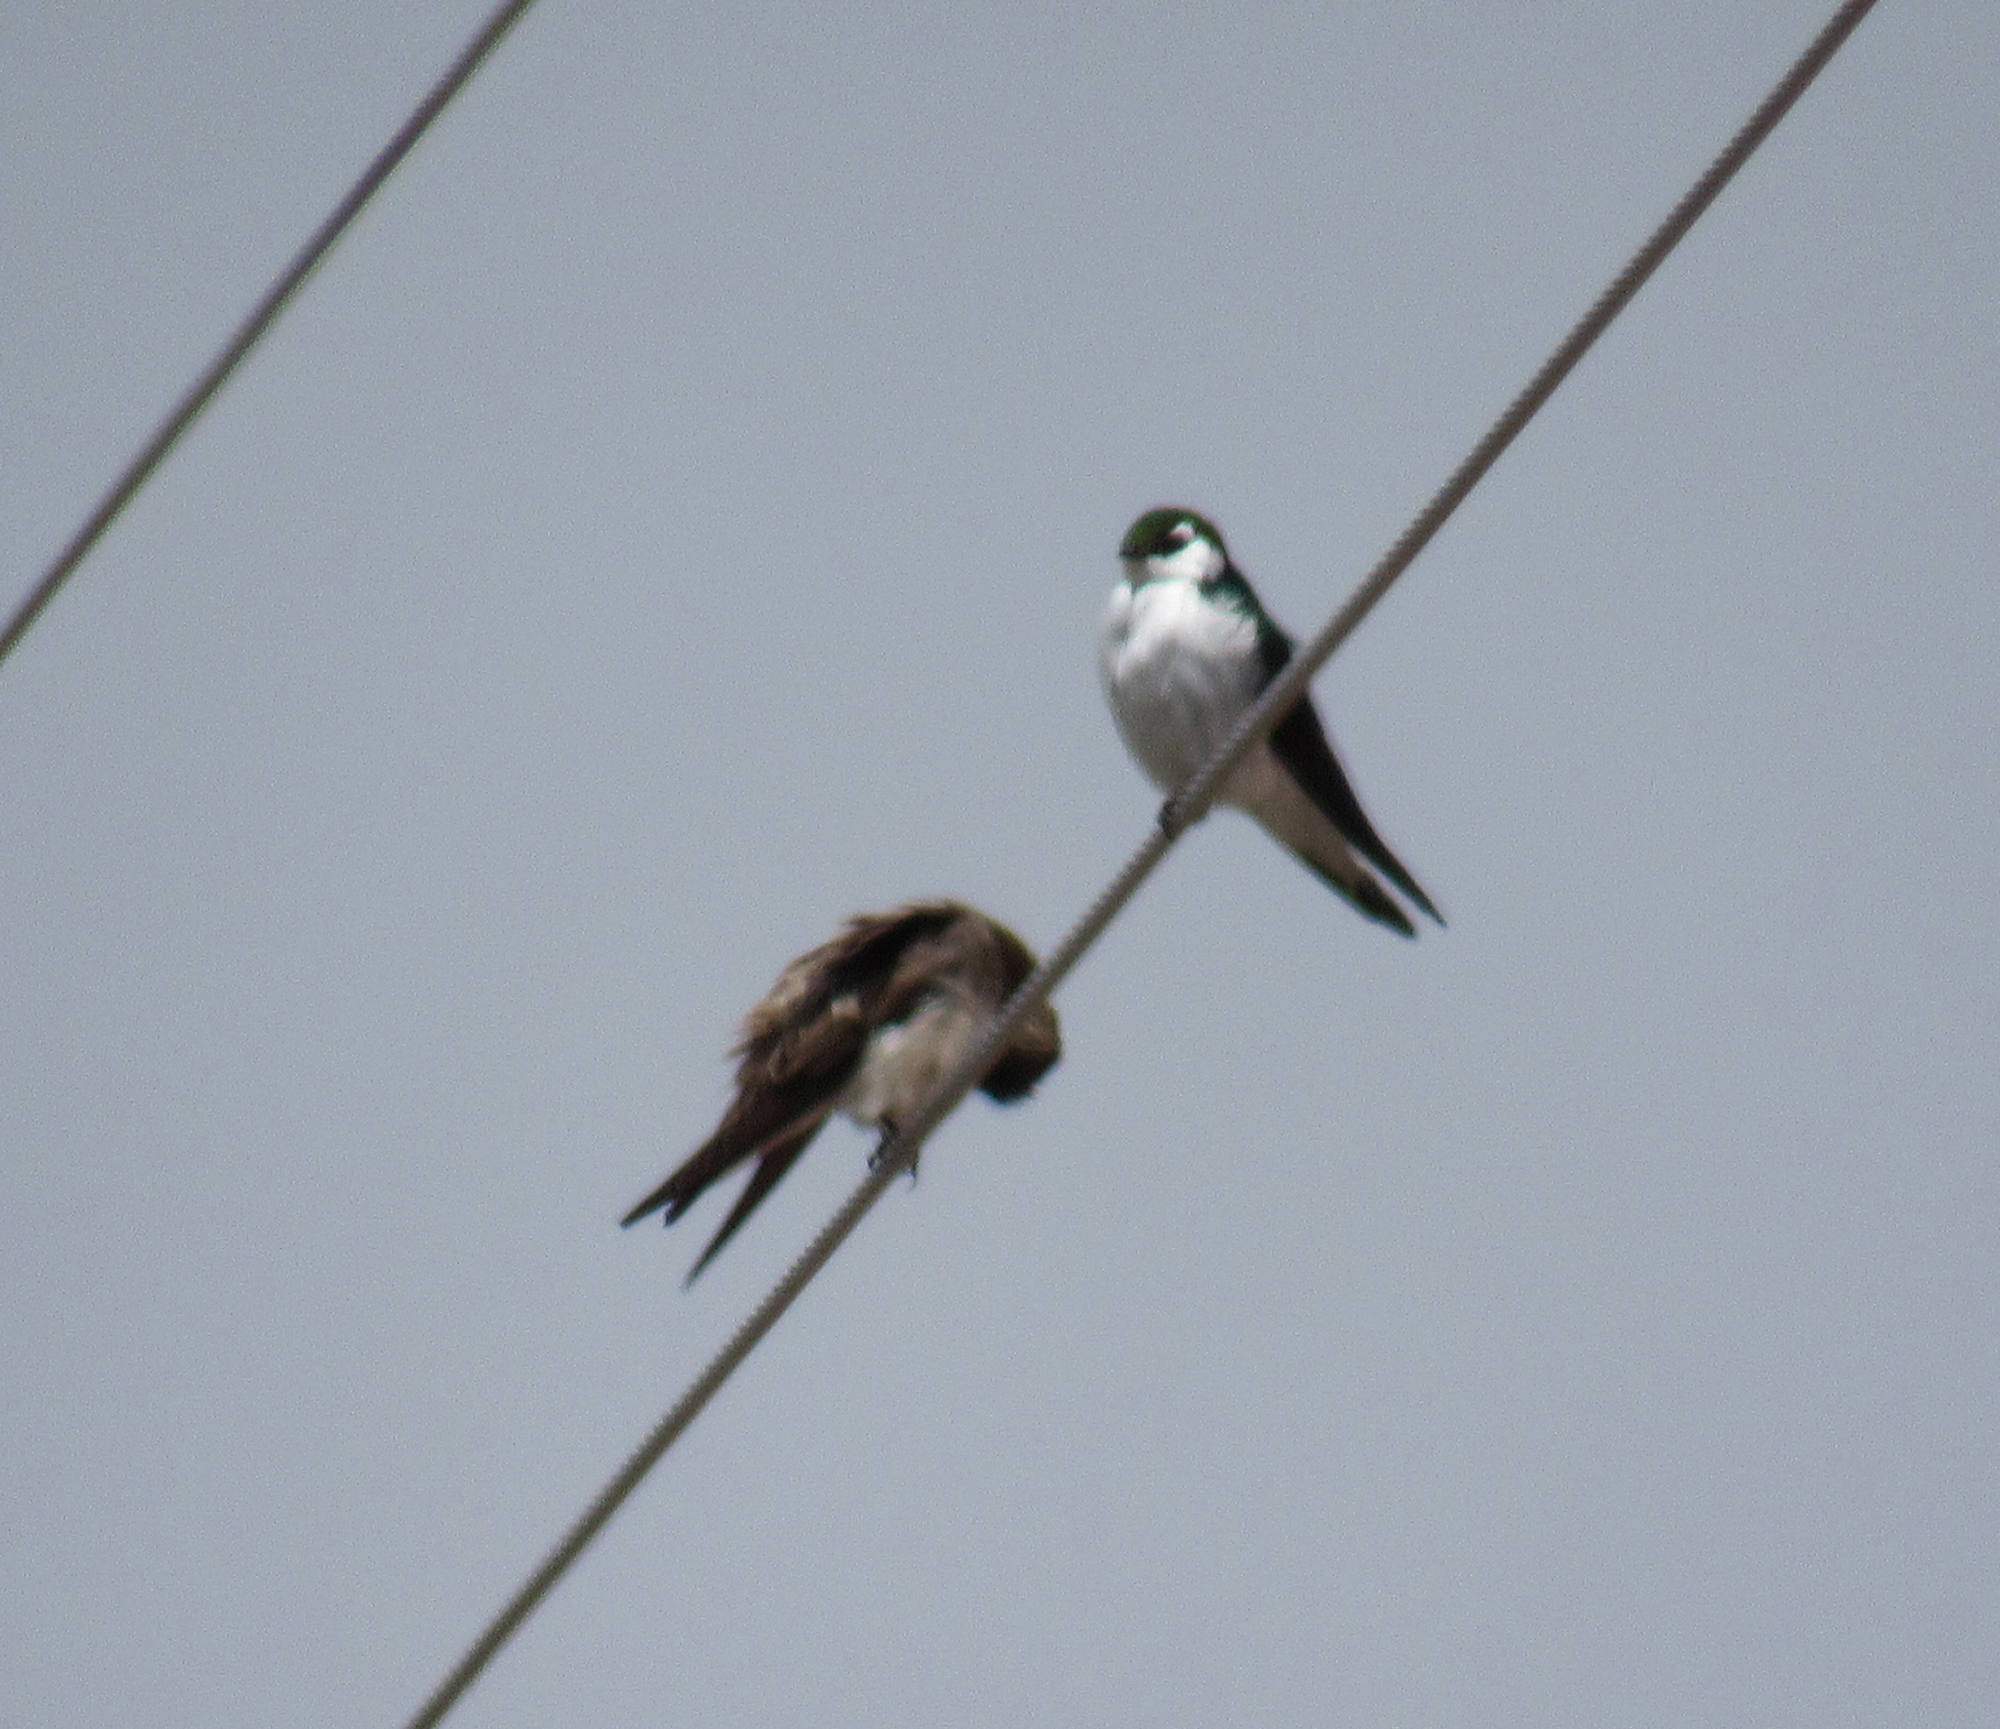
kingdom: Animalia
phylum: Chordata
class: Aves
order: Passeriformes
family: Hirundinidae
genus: Tachycineta
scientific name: Tachycineta thalassina
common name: Violet-green swallow
